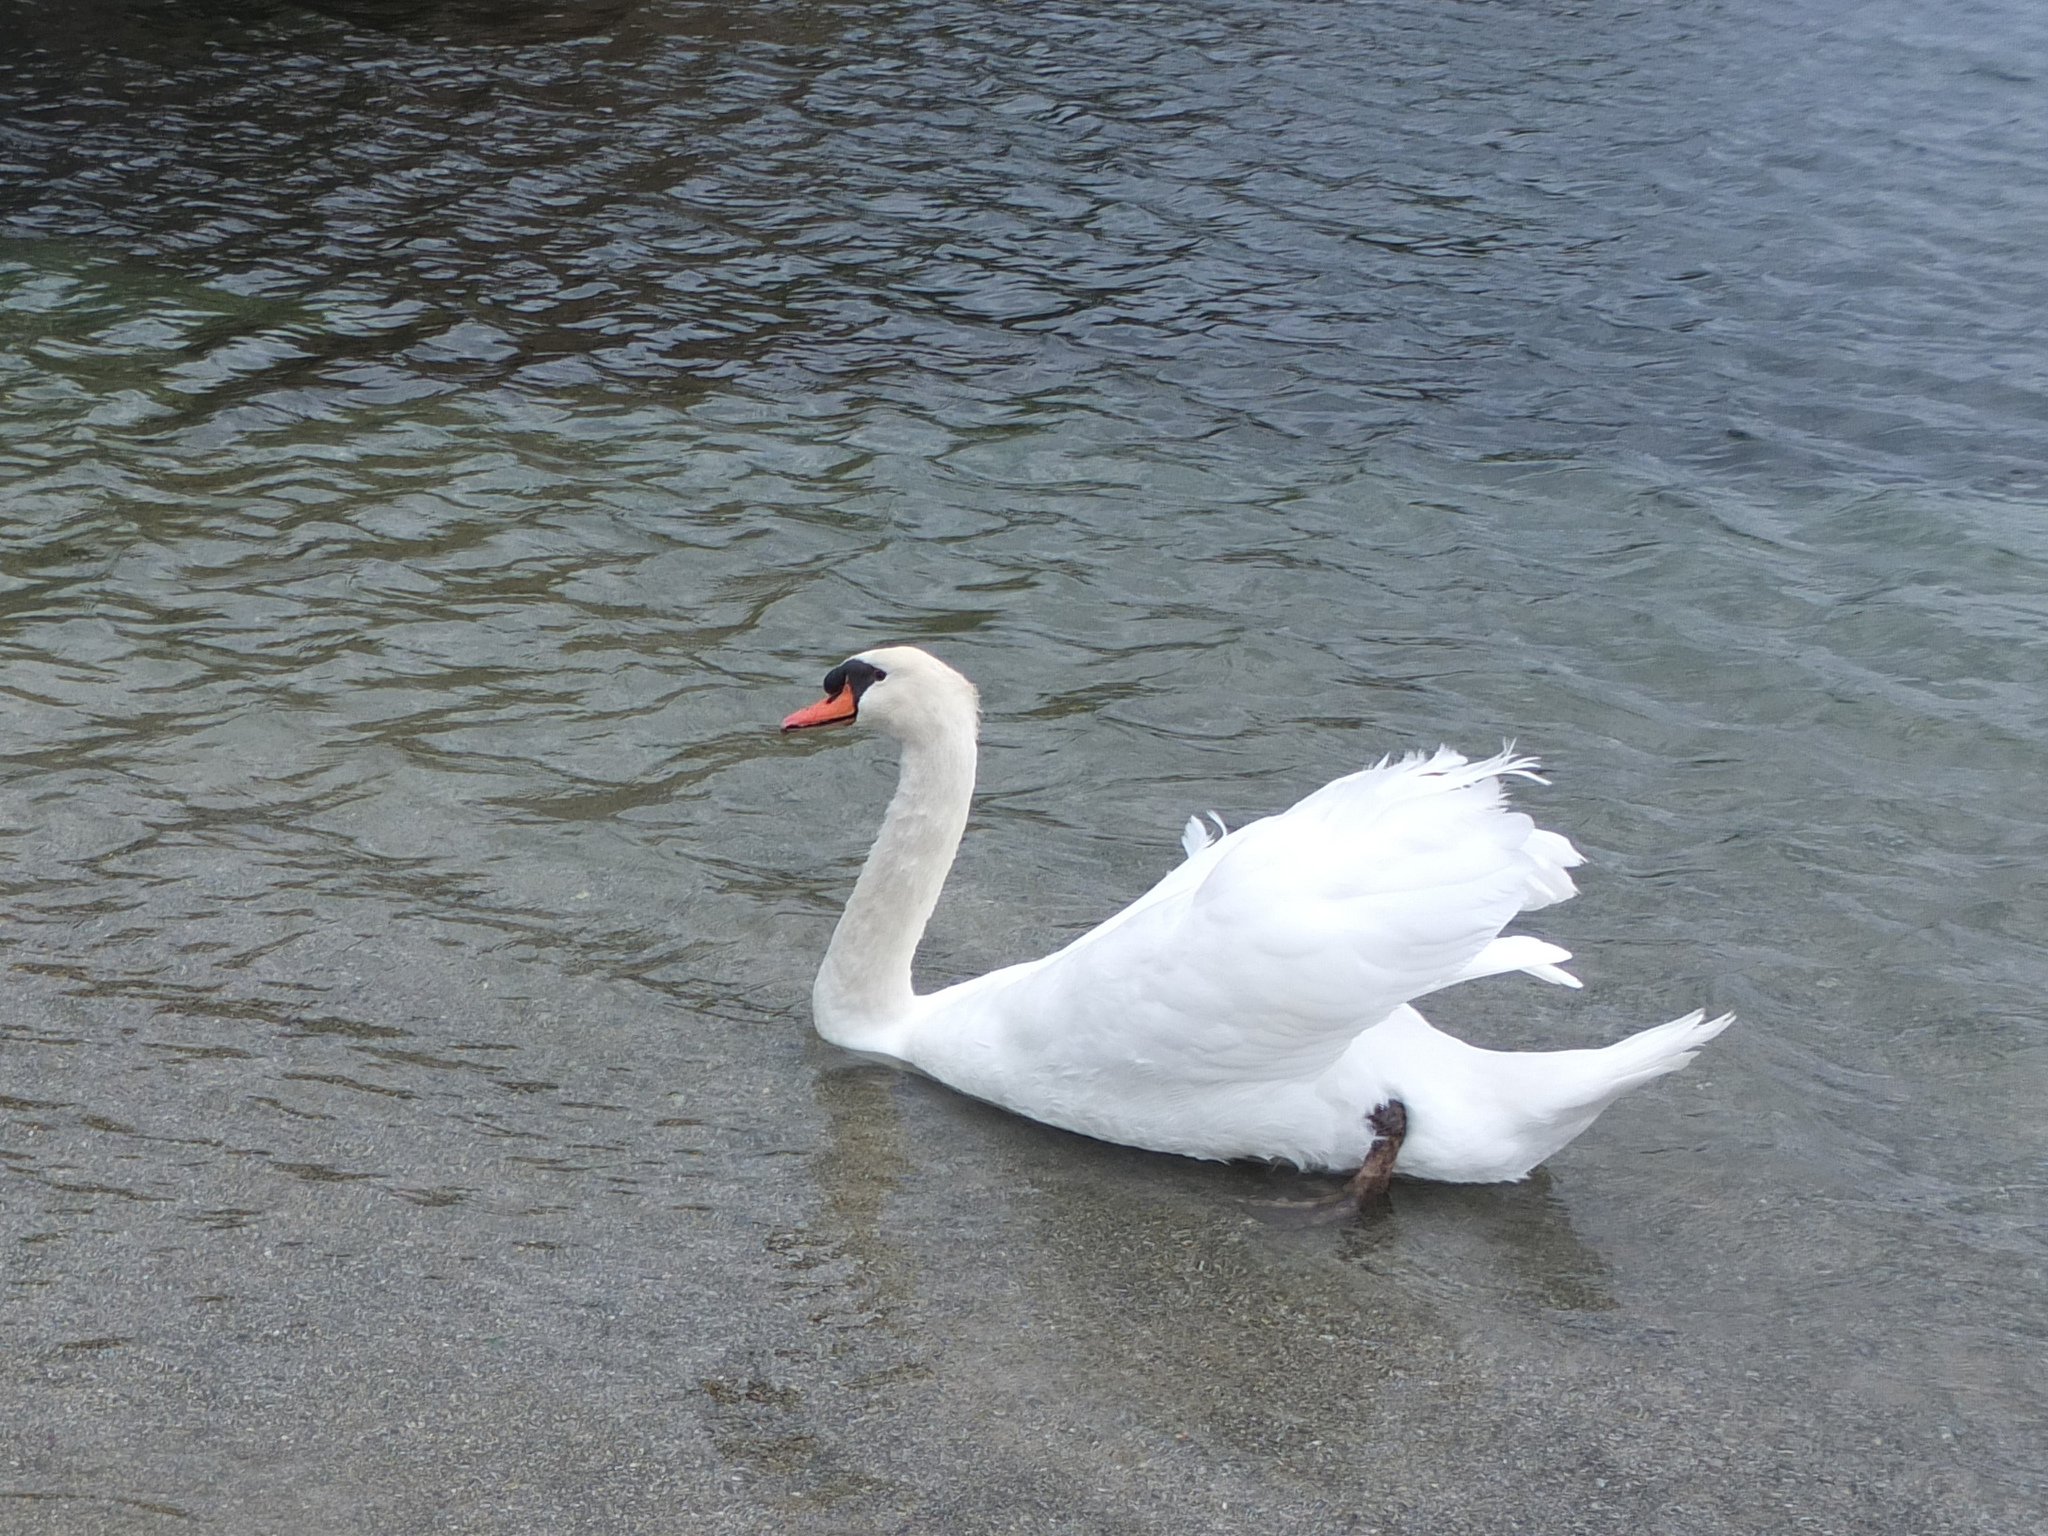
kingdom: Animalia
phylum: Chordata
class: Aves
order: Anseriformes
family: Anatidae
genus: Cygnus
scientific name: Cygnus olor
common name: Mute swan
